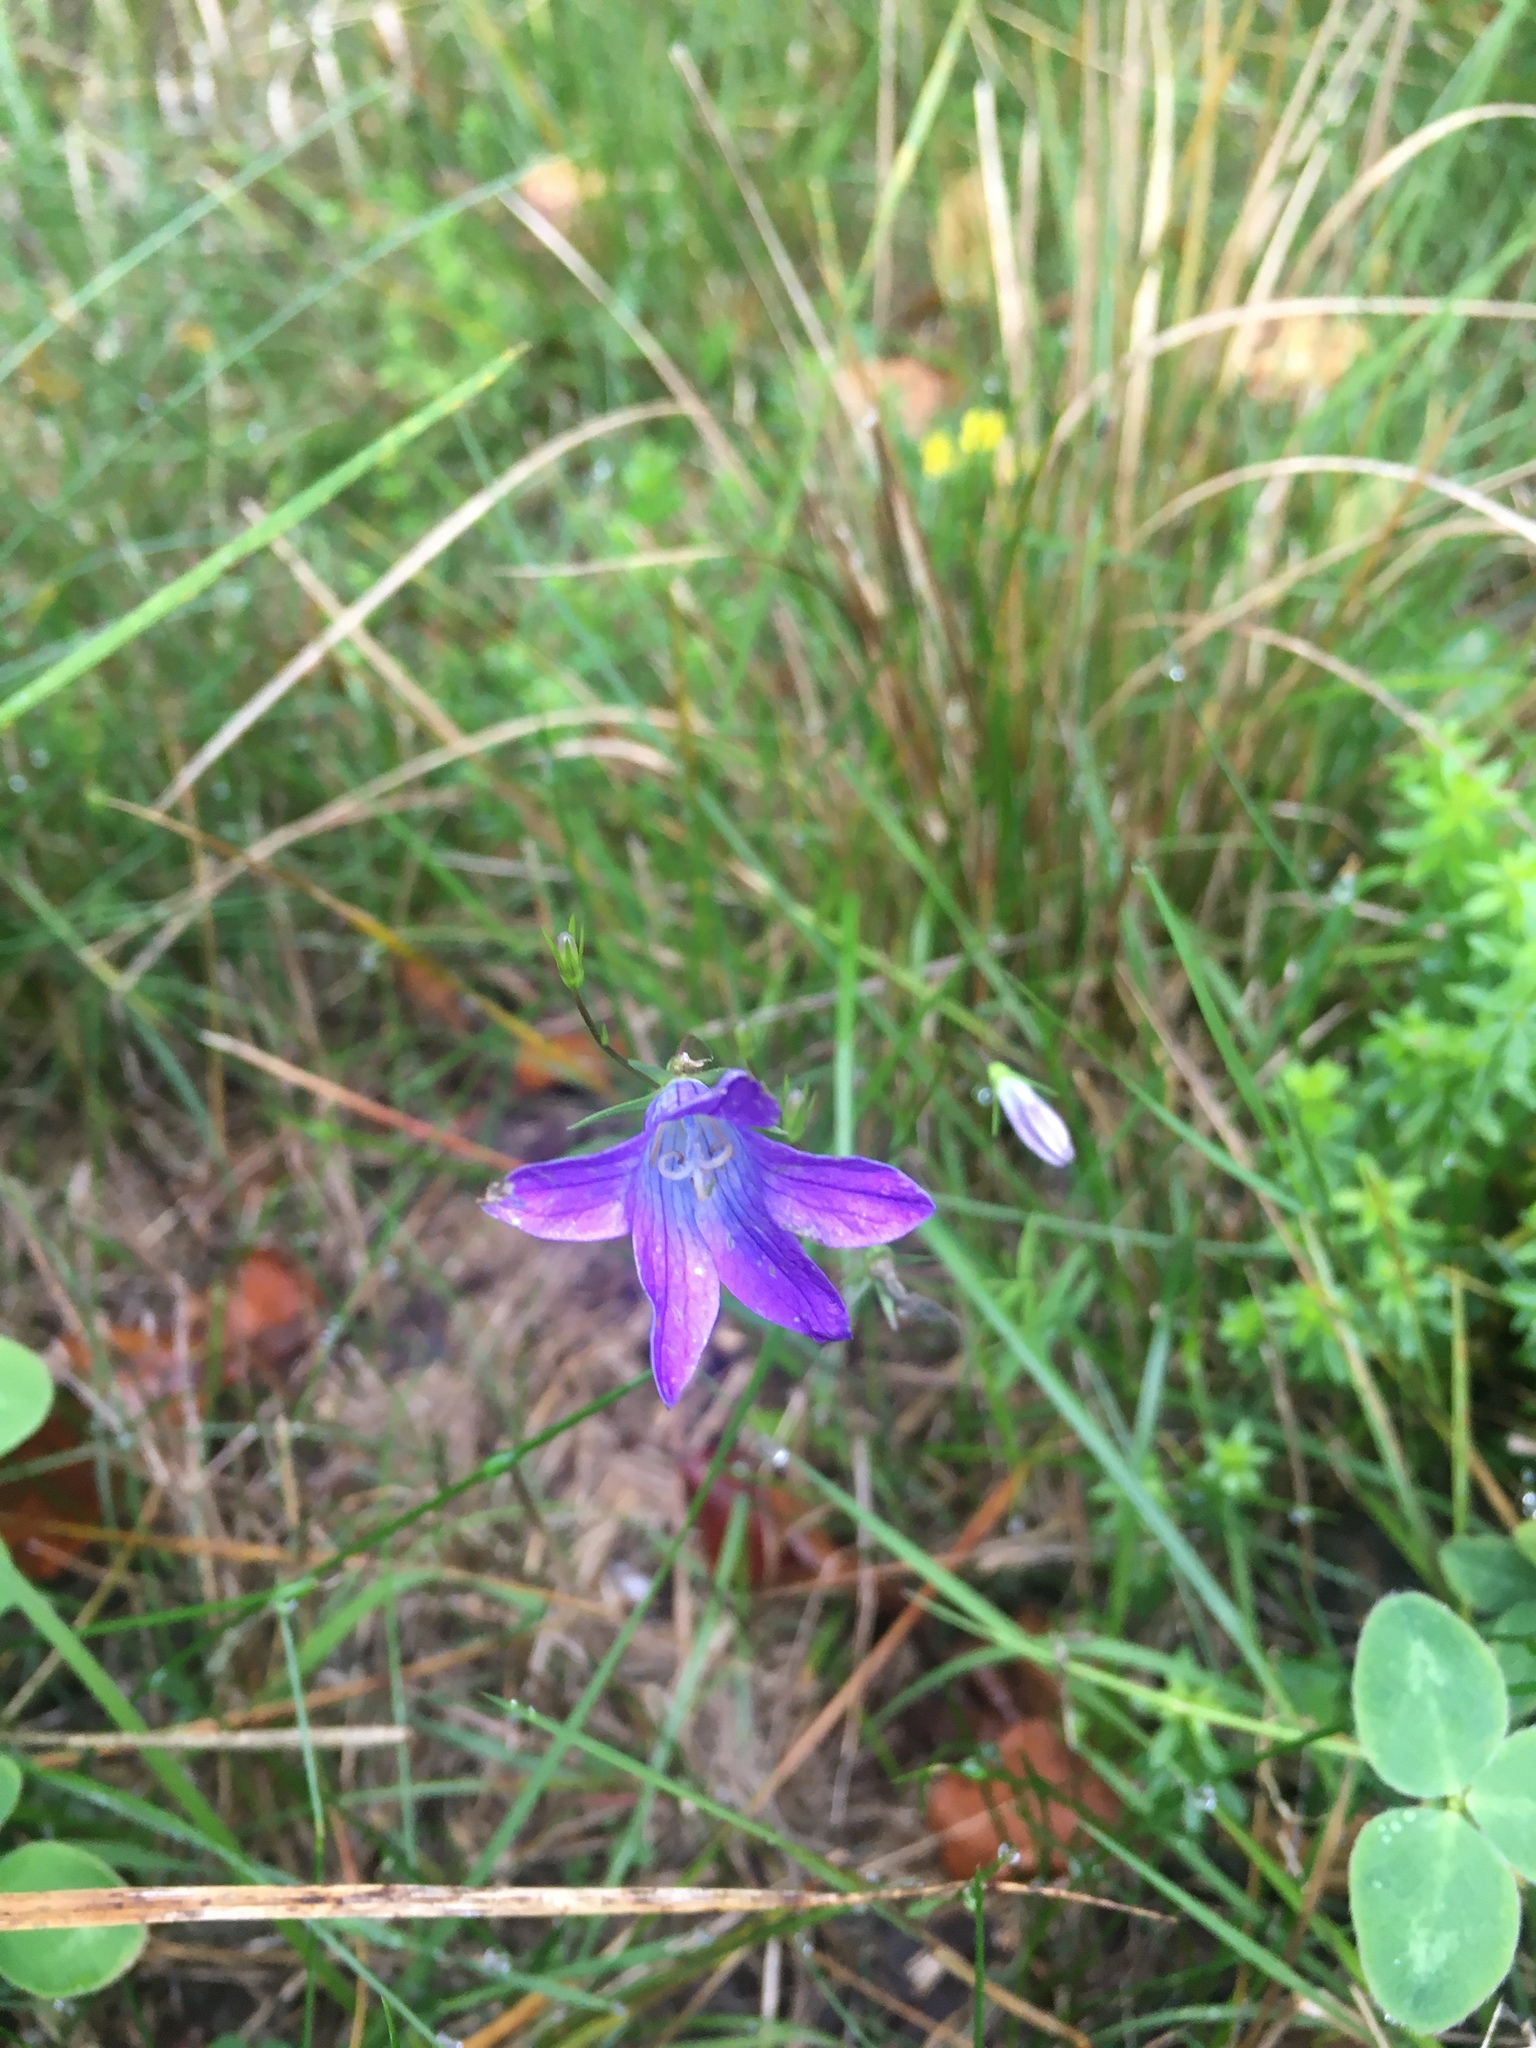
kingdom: Plantae
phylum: Tracheophyta
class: Magnoliopsida
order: Asterales
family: Campanulaceae
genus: Campanula
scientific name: Campanula patula
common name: Spreading bellflower
